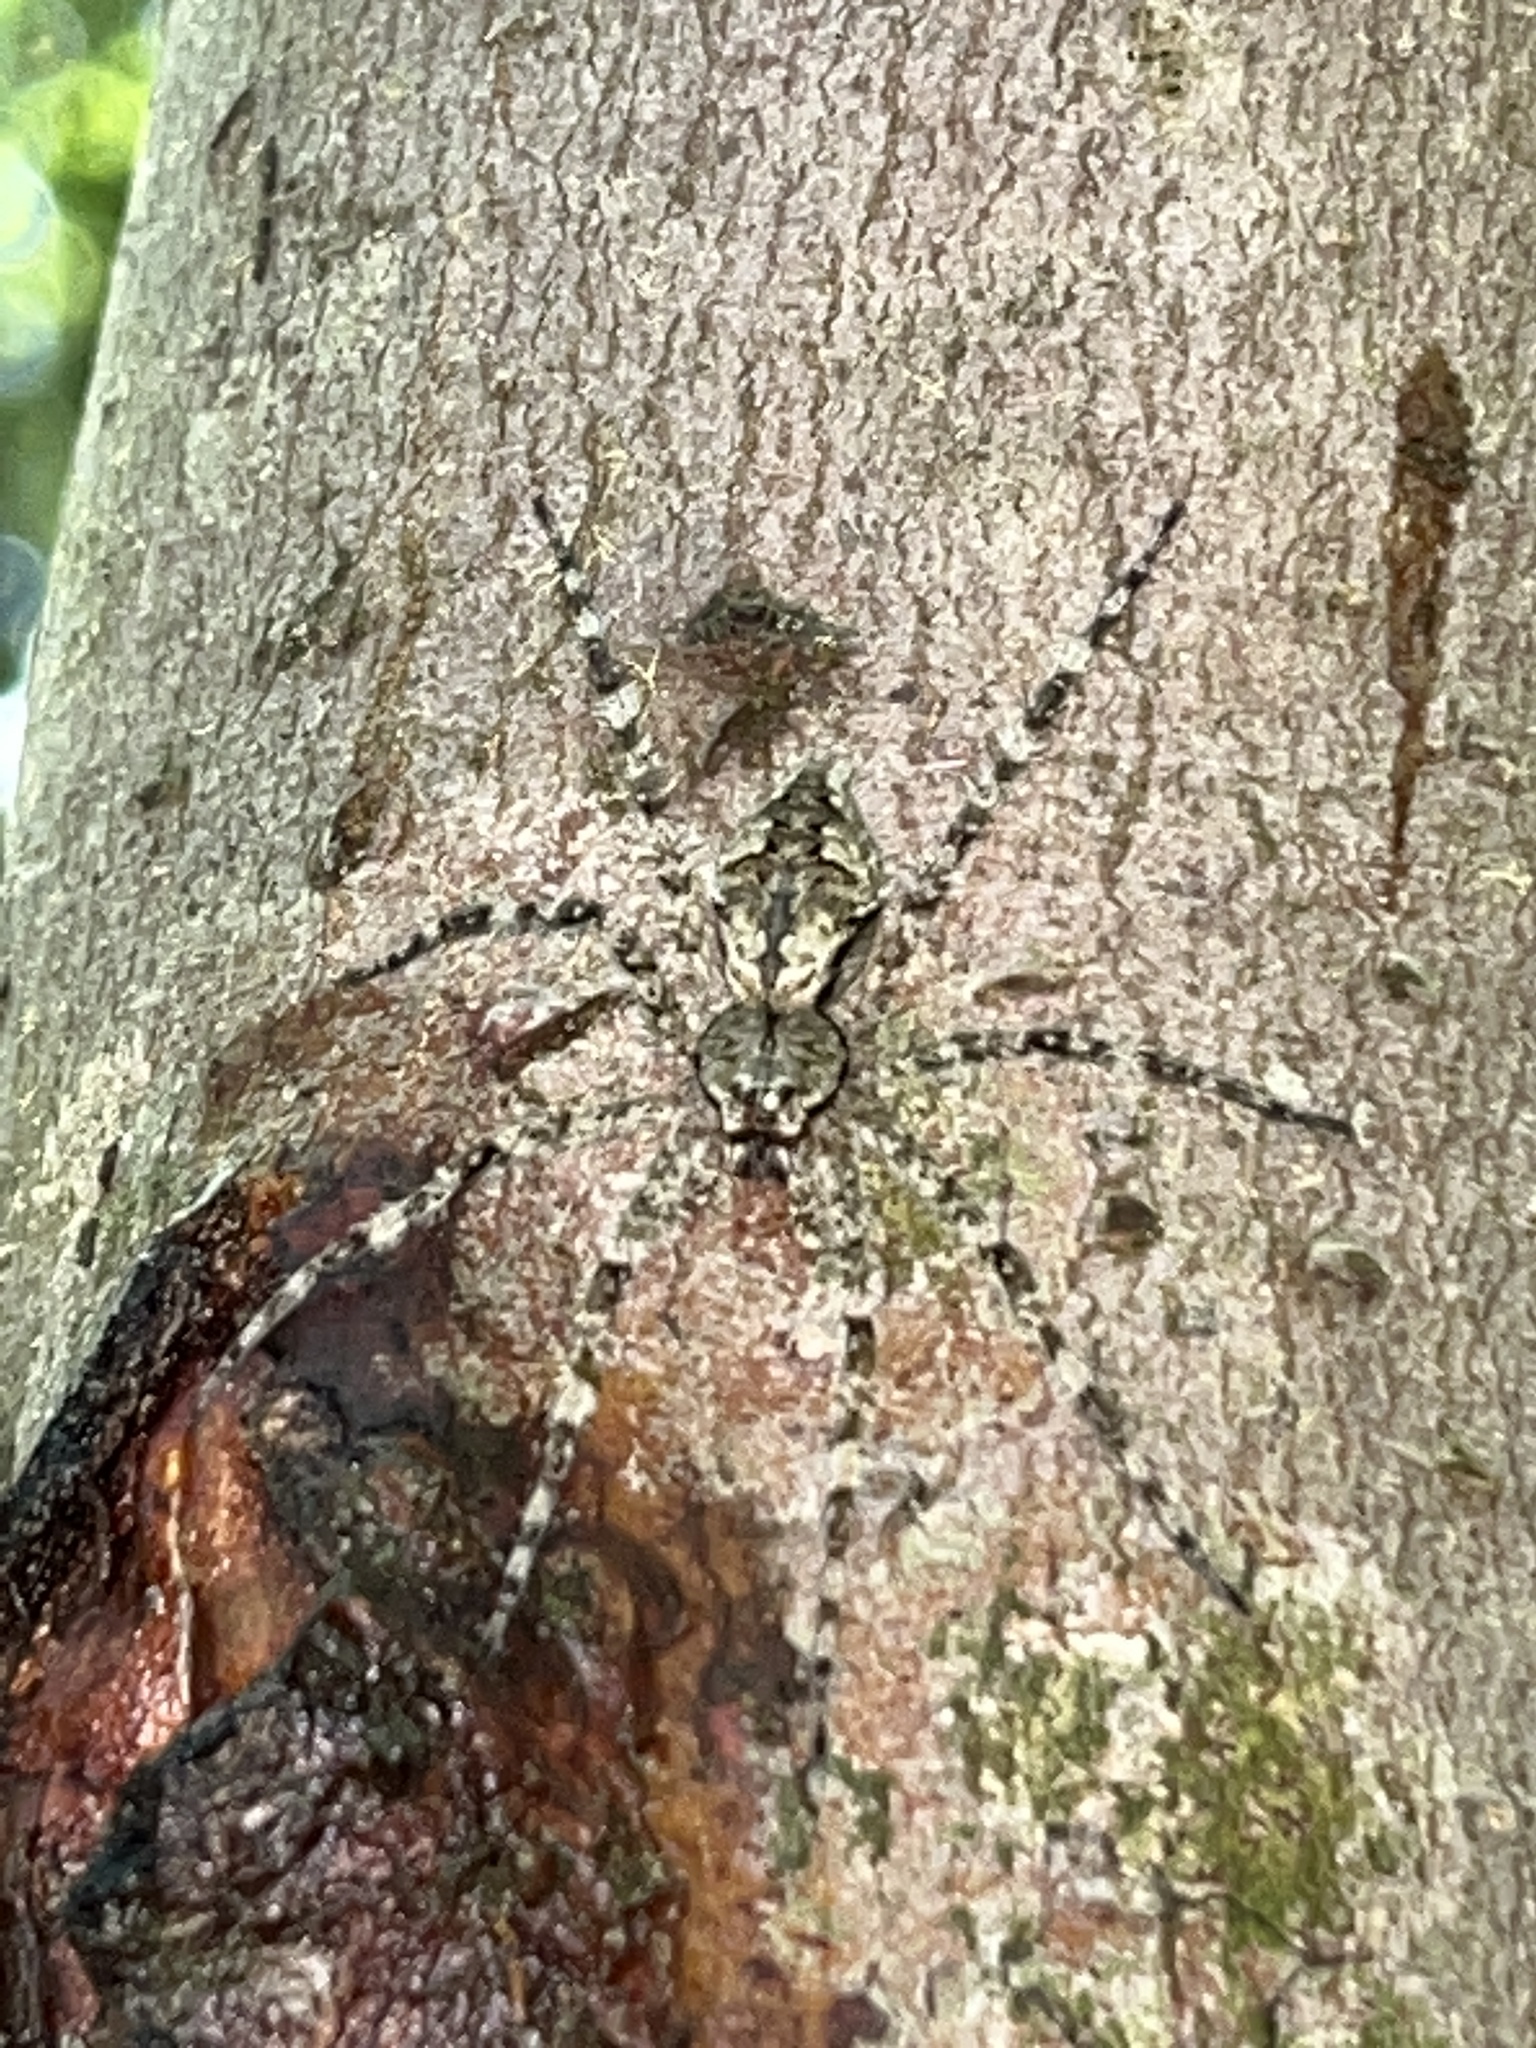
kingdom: Animalia
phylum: Arthropoda
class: Arachnida
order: Araneae
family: Pisauridae
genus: Dolomedes
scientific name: Dolomedes albineus
